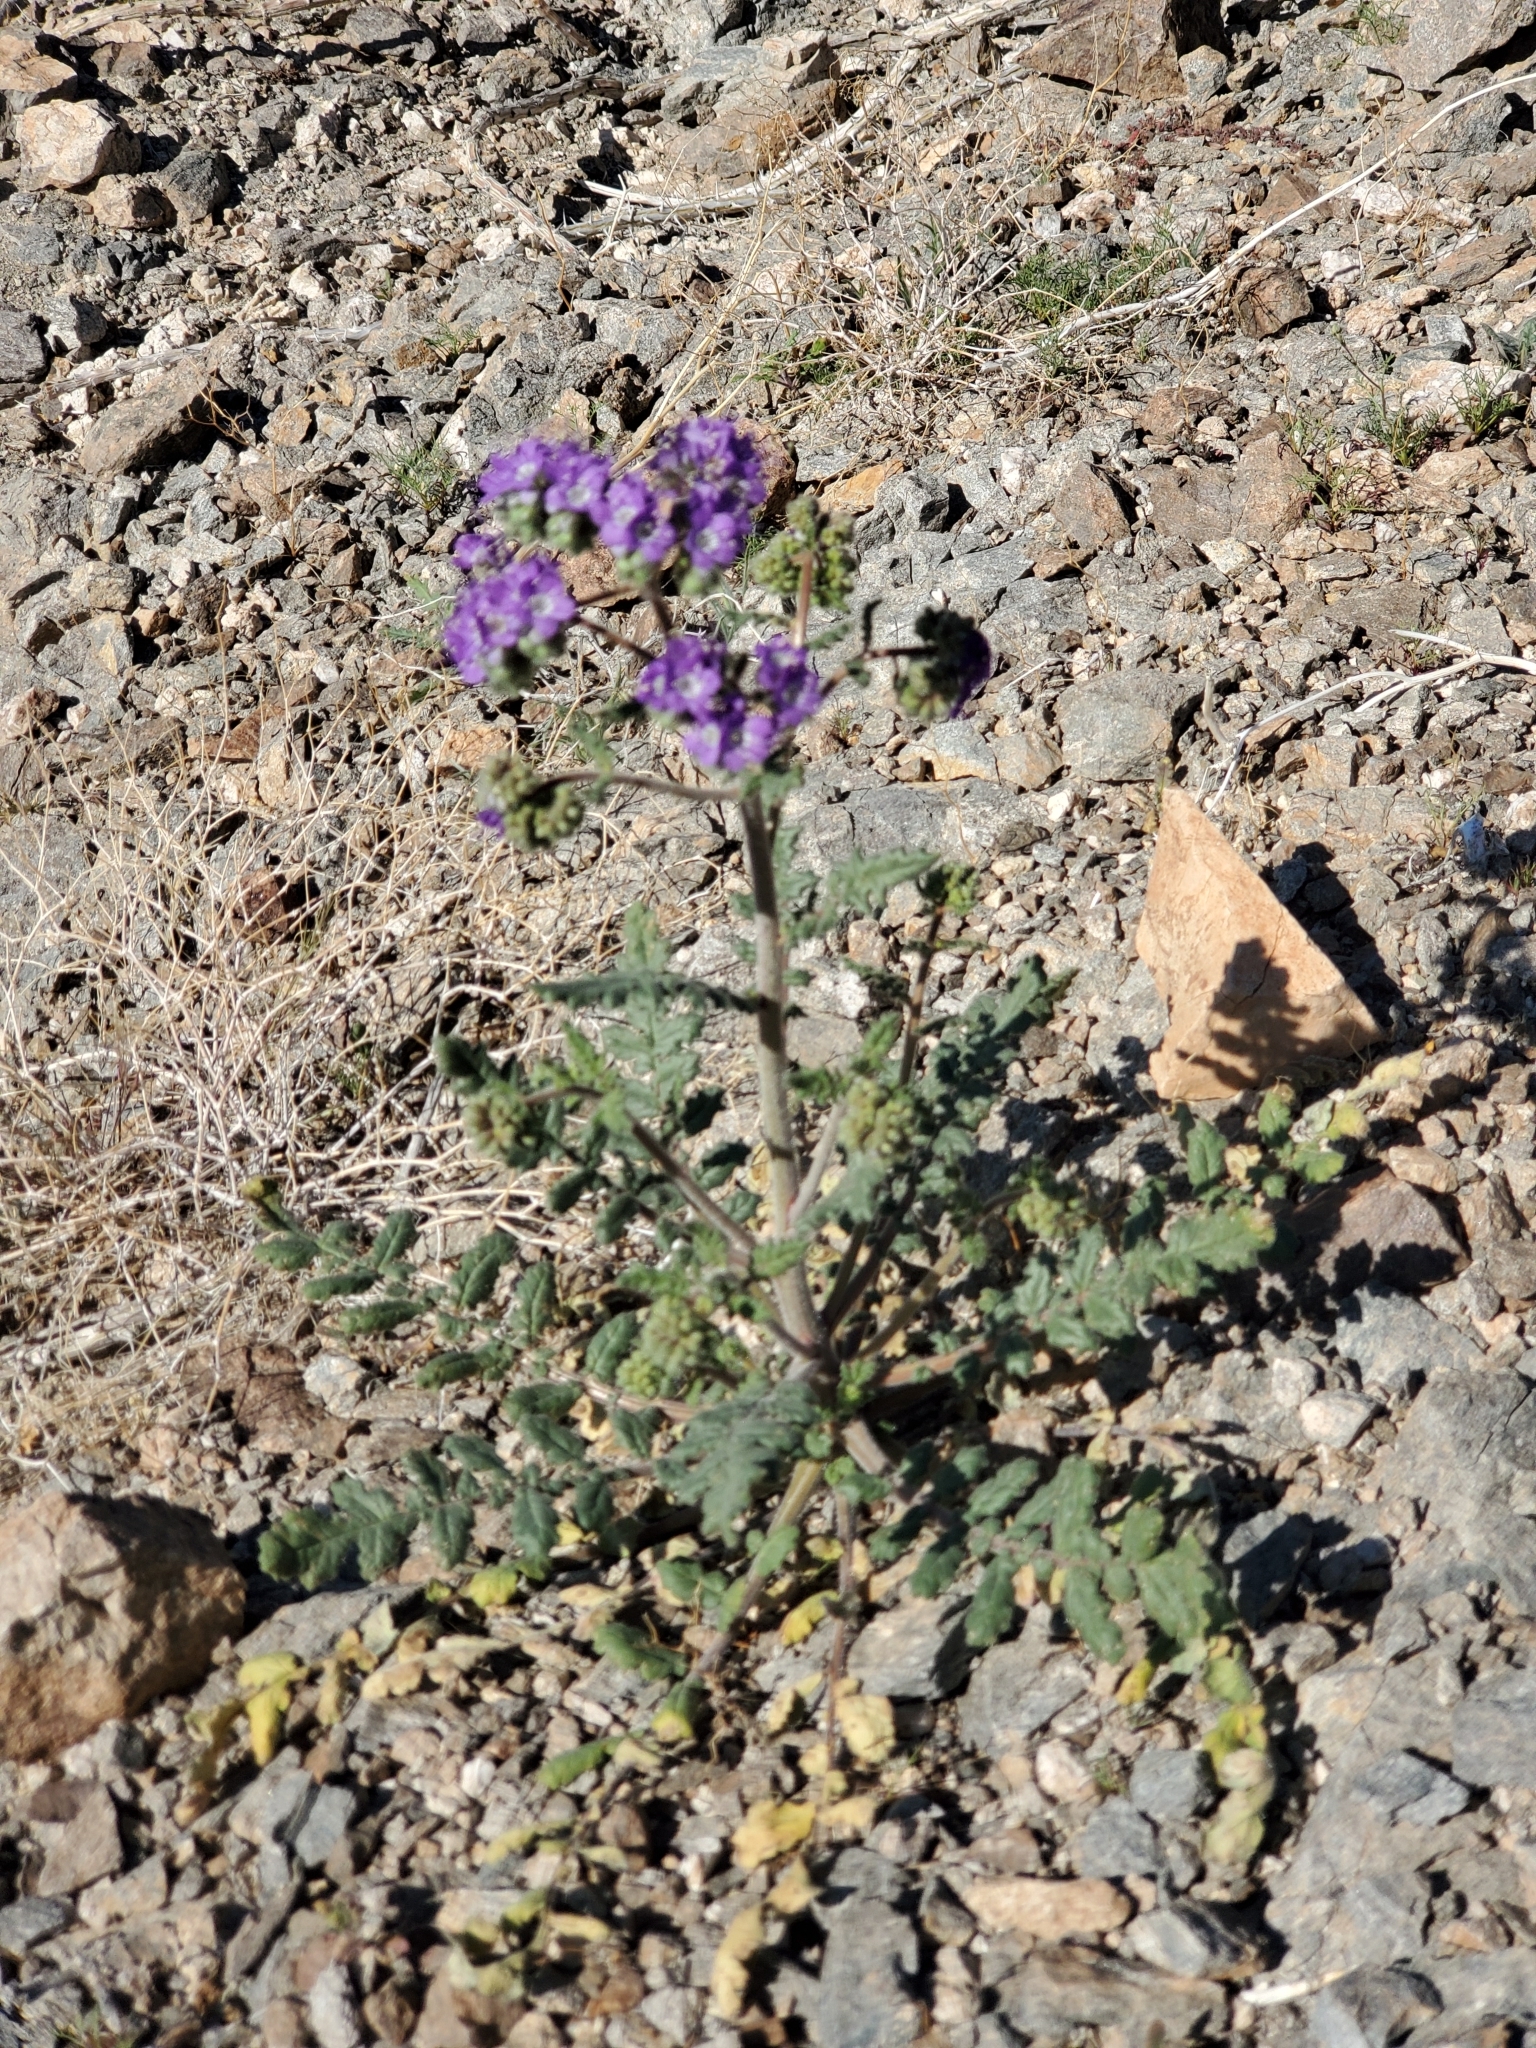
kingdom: Plantae
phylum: Tracheophyta
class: Magnoliopsida
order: Boraginales
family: Hydrophyllaceae
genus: Phacelia
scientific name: Phacelia crenulata
